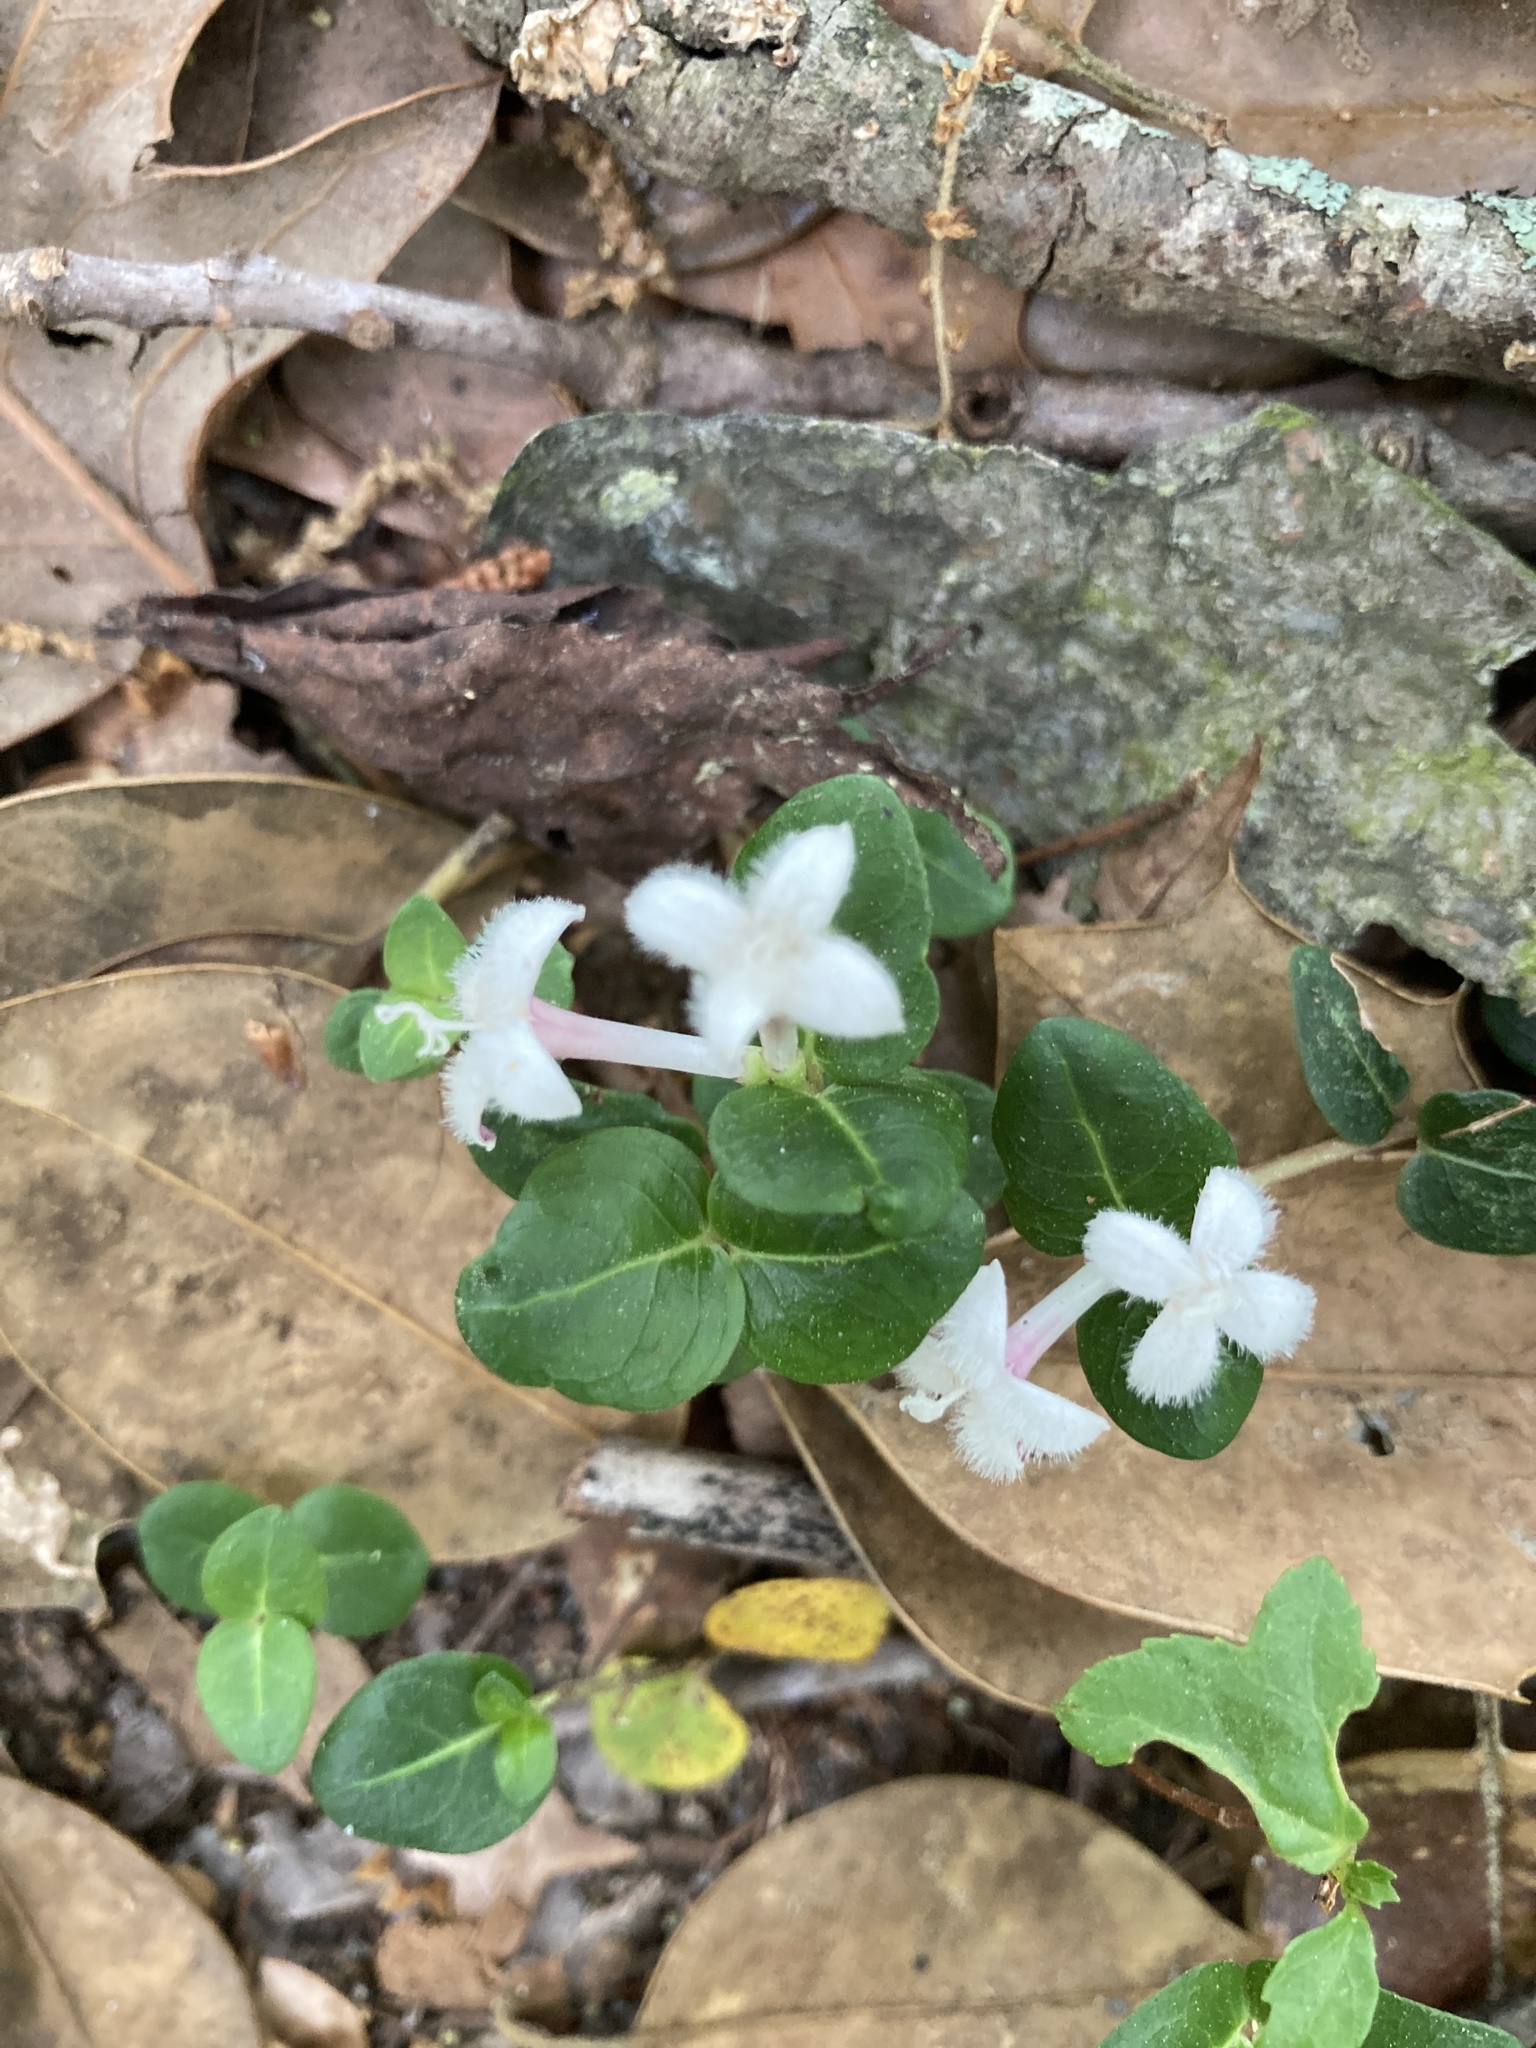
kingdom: Plantae
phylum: Tracheophyta
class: Magnoliopsida
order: Gentianales
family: Rubiaceae
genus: Mitchella
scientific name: Mitchella repens
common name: Partridge-berry
